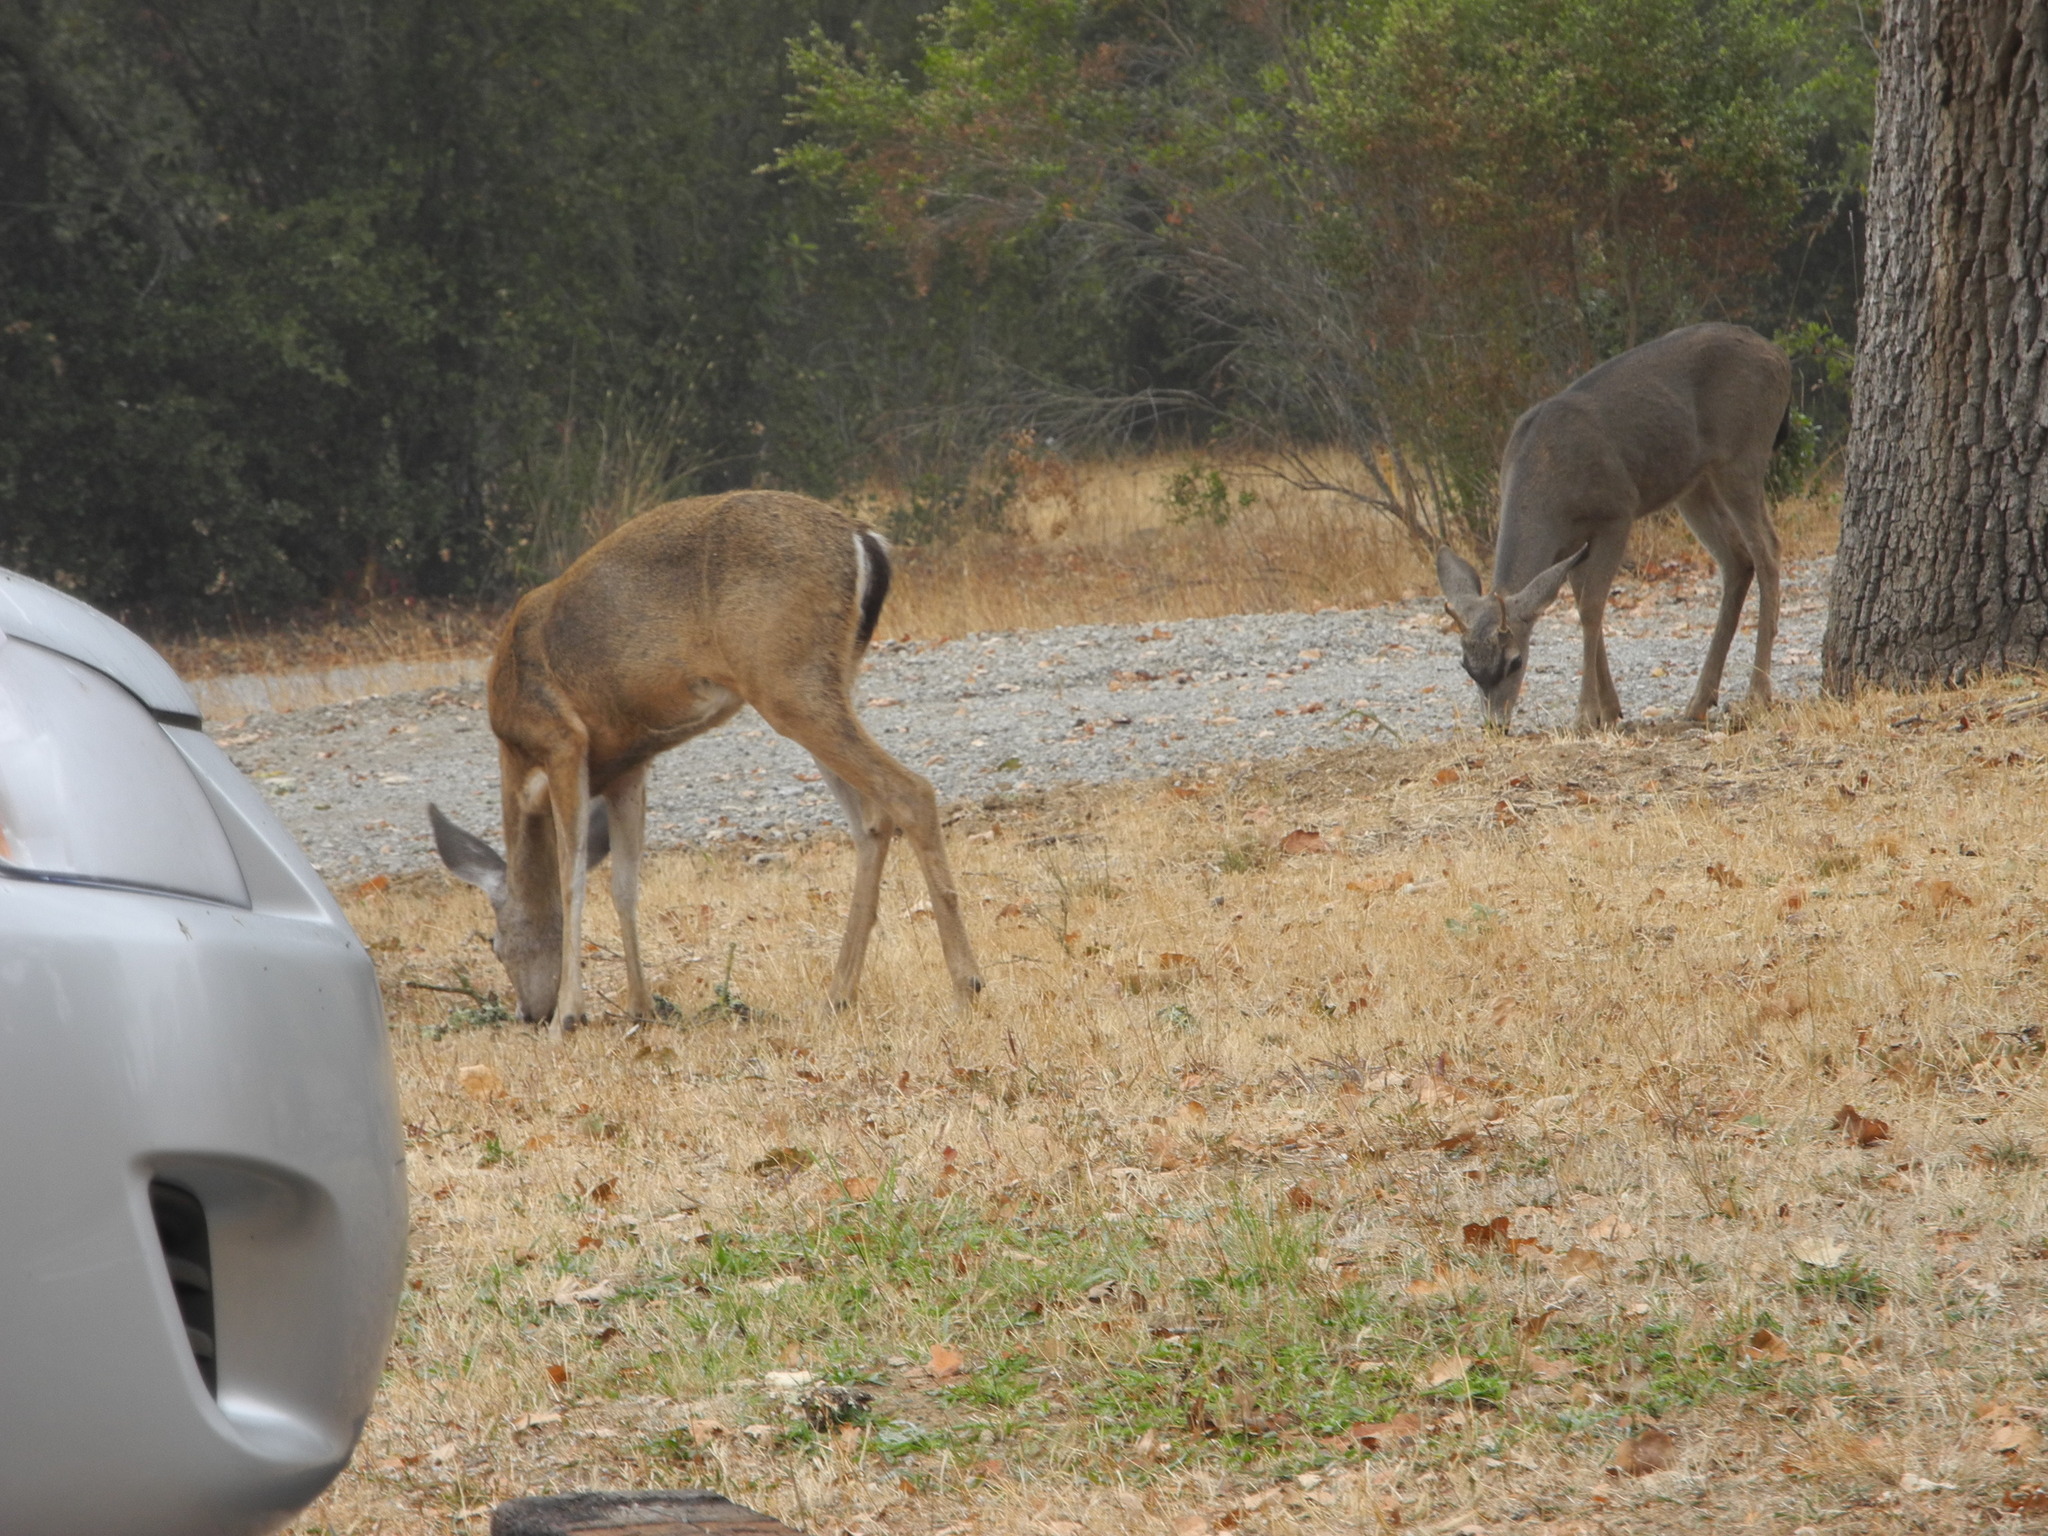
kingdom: Animalia
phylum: Chordata
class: Mammalia
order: Artiodactyla
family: Cervidae
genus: Odocoileus
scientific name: Odocoileus hemionus
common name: Mule deer
